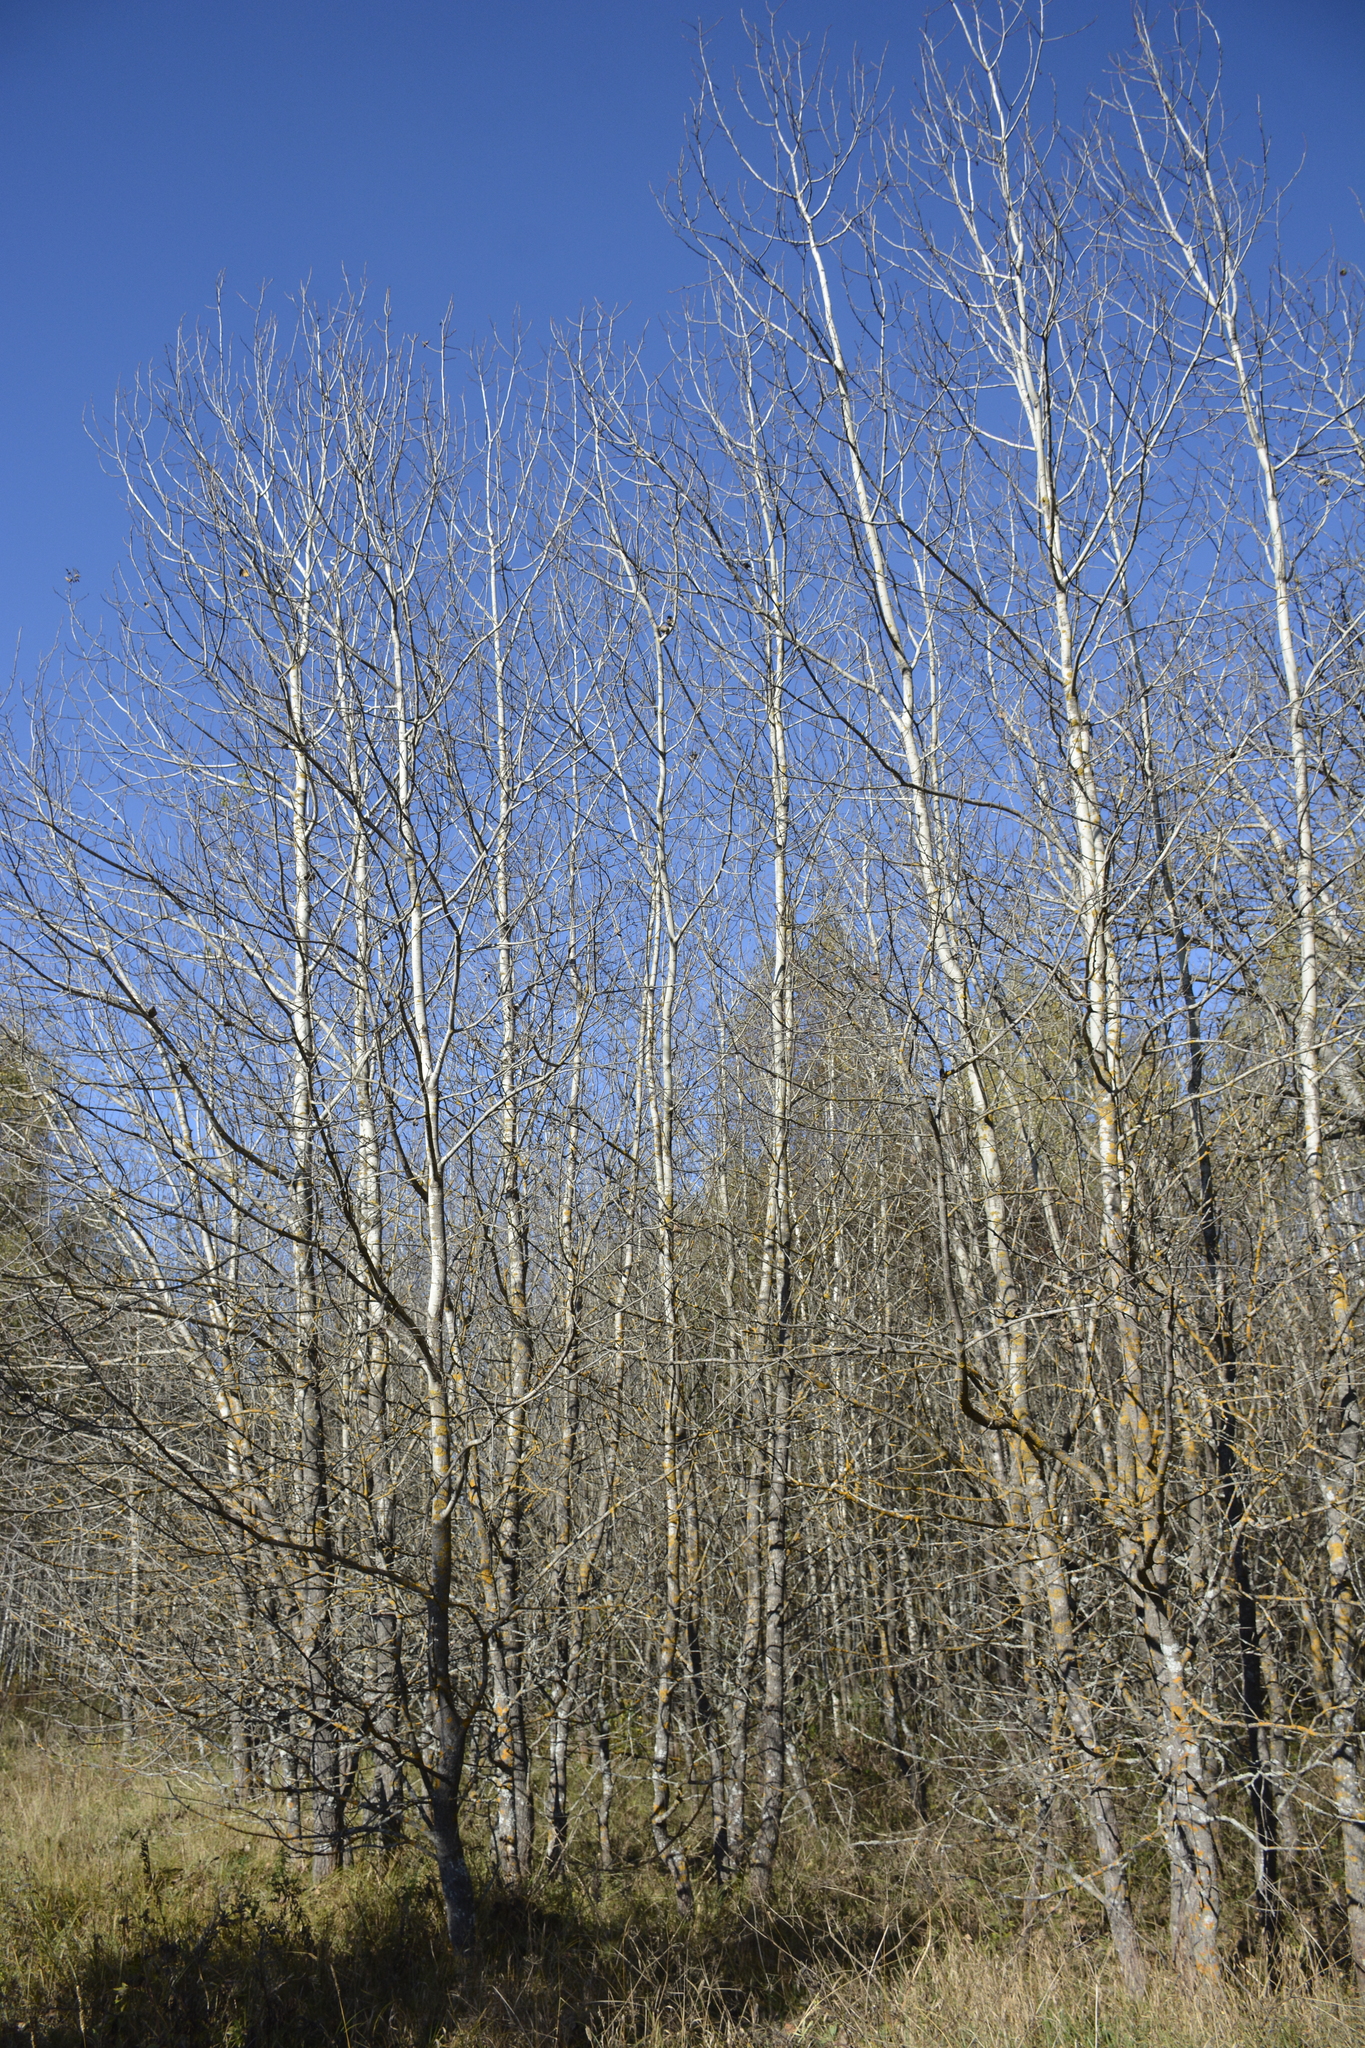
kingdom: Plantae
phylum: Tracheophyta
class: Magnoliopsida
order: Malpighiales
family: Salicaceae
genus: Populus
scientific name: Populus tremula
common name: European aspen
